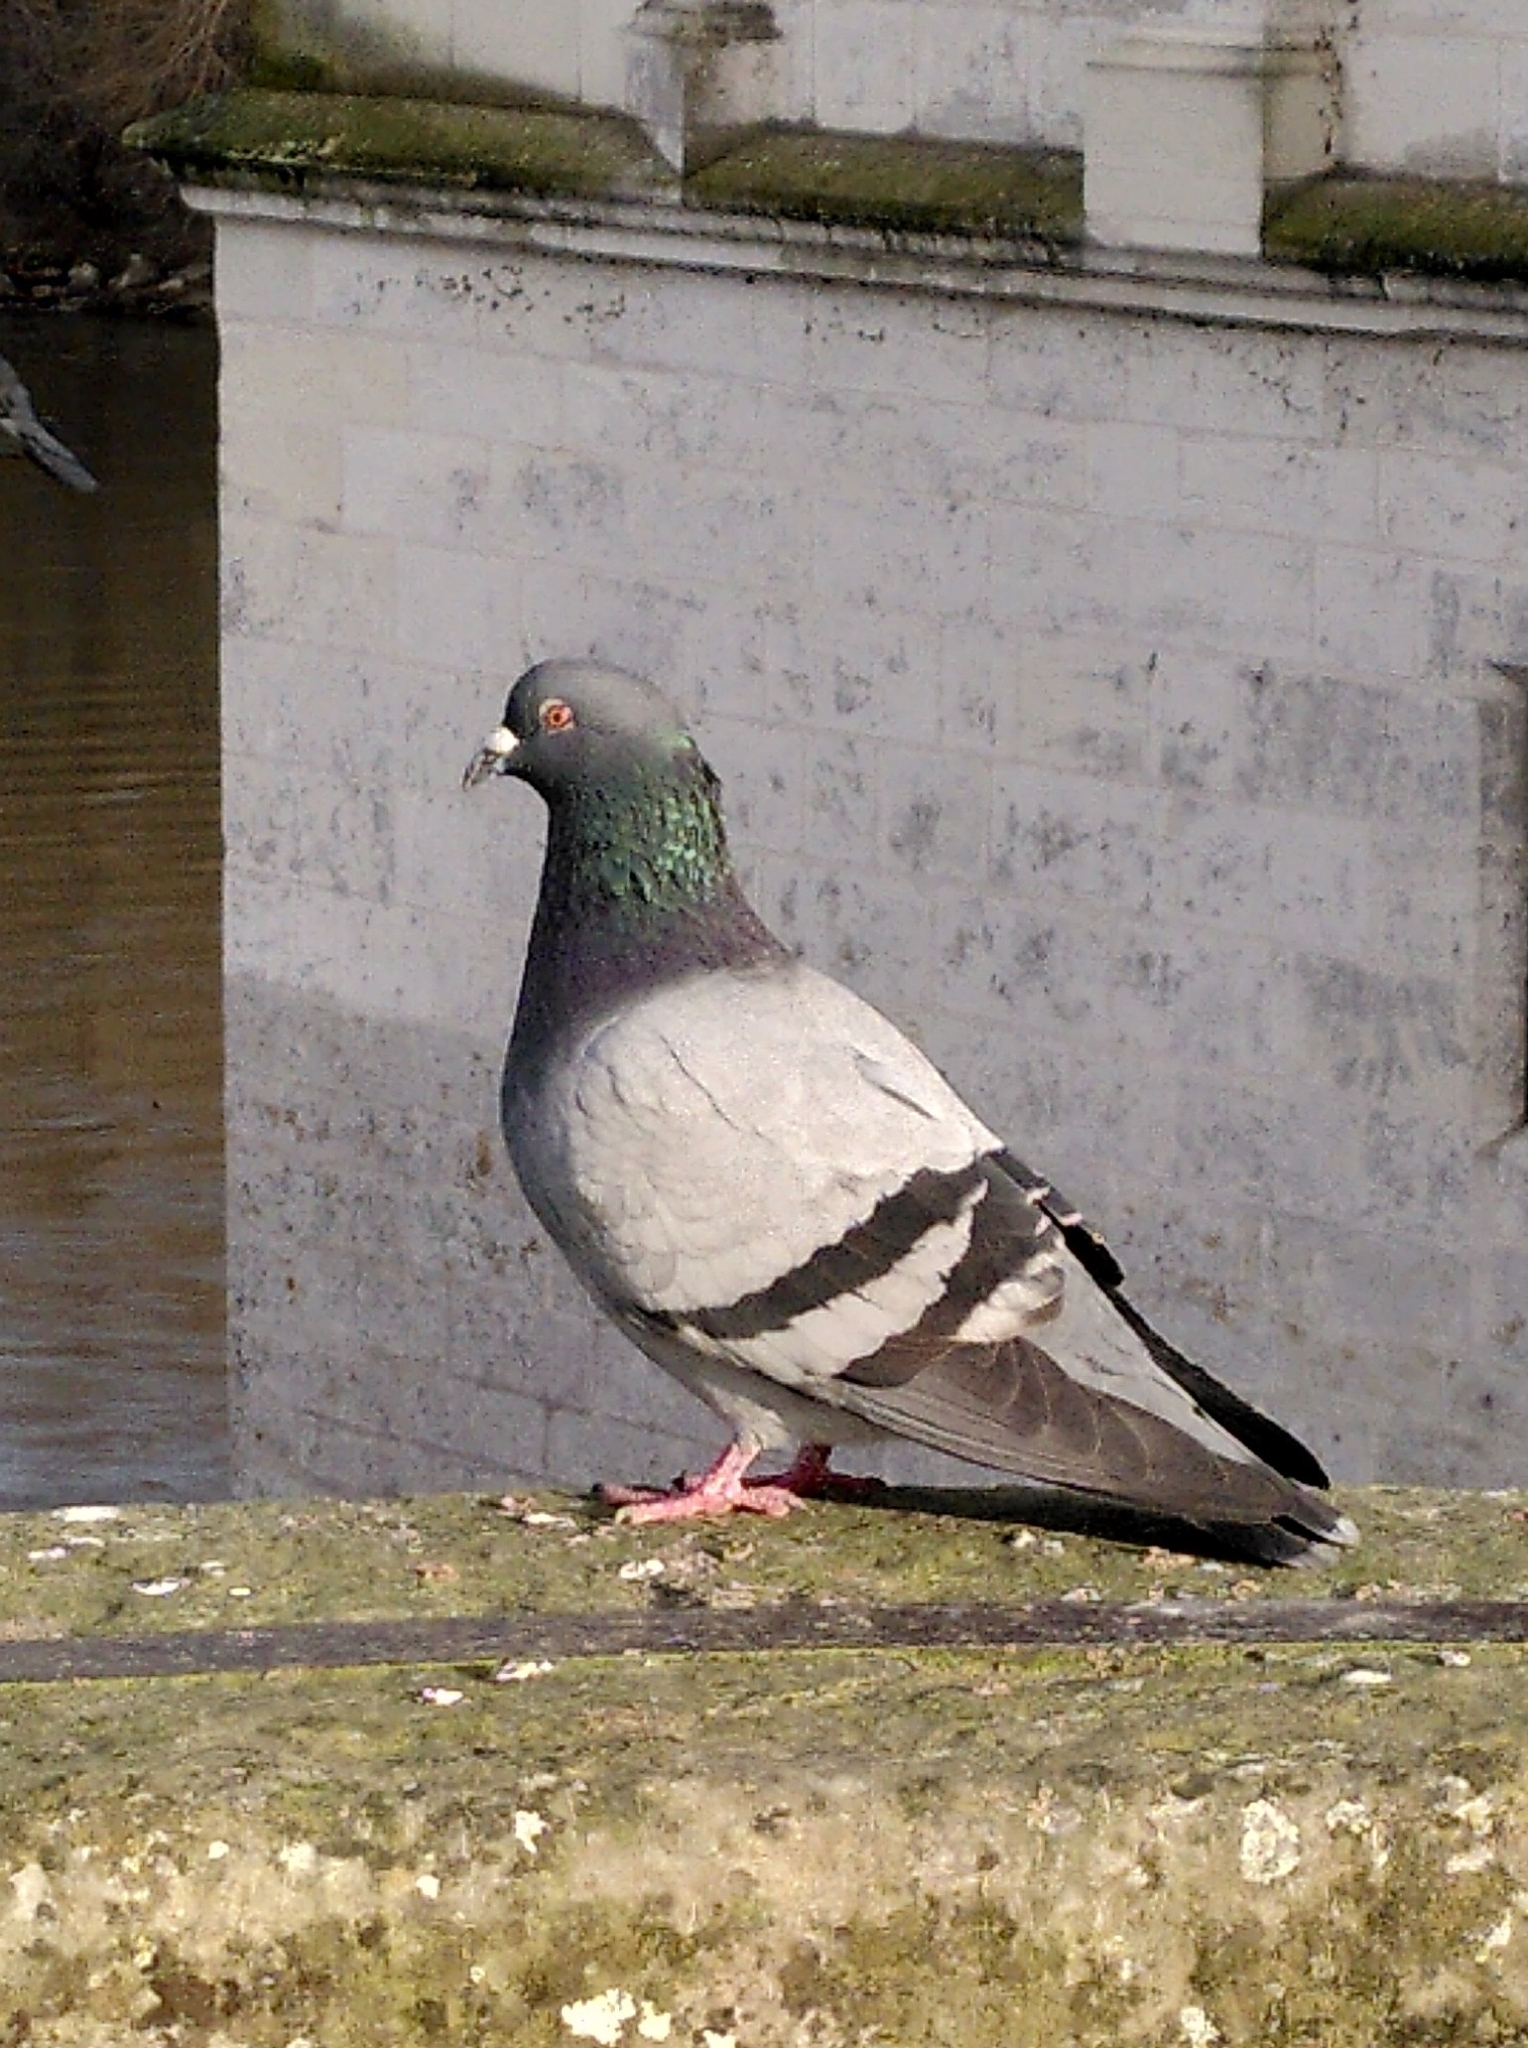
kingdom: Animalia
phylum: Chordata
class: Aves
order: Columbiformes
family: Columbidae
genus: Columba
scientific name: Columba livia
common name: Rock pigeon
